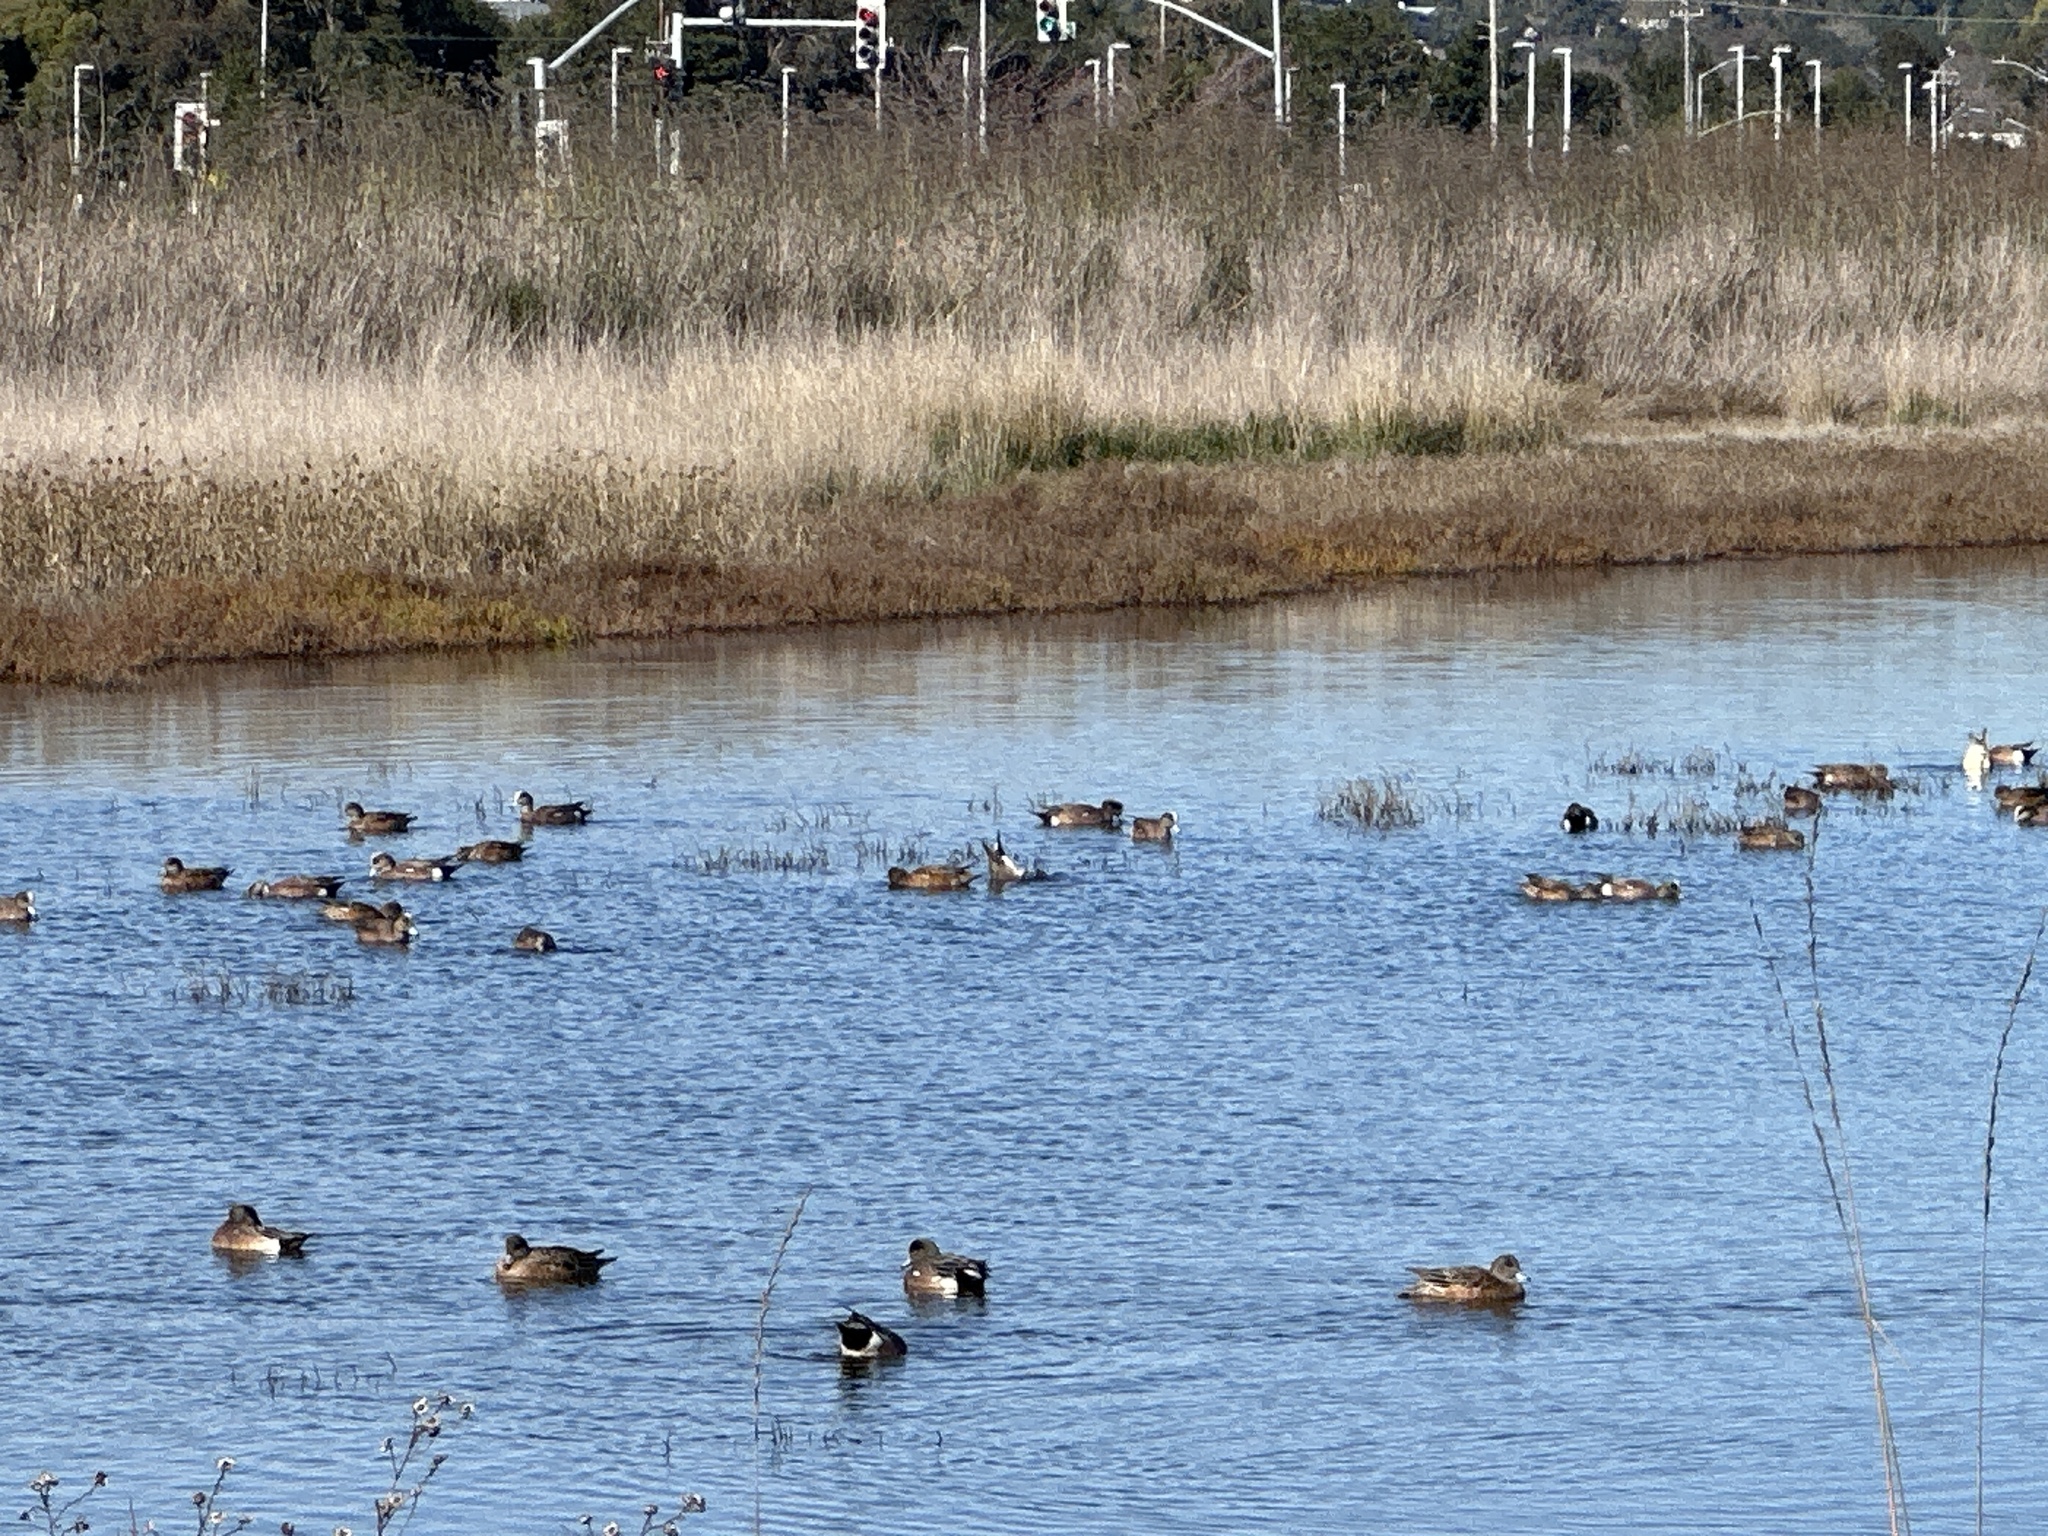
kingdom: Animalia
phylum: Chordata
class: Aves
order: Anseriformes
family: Anatidae
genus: Mareca
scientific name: Mareca americana
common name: American wigeon
